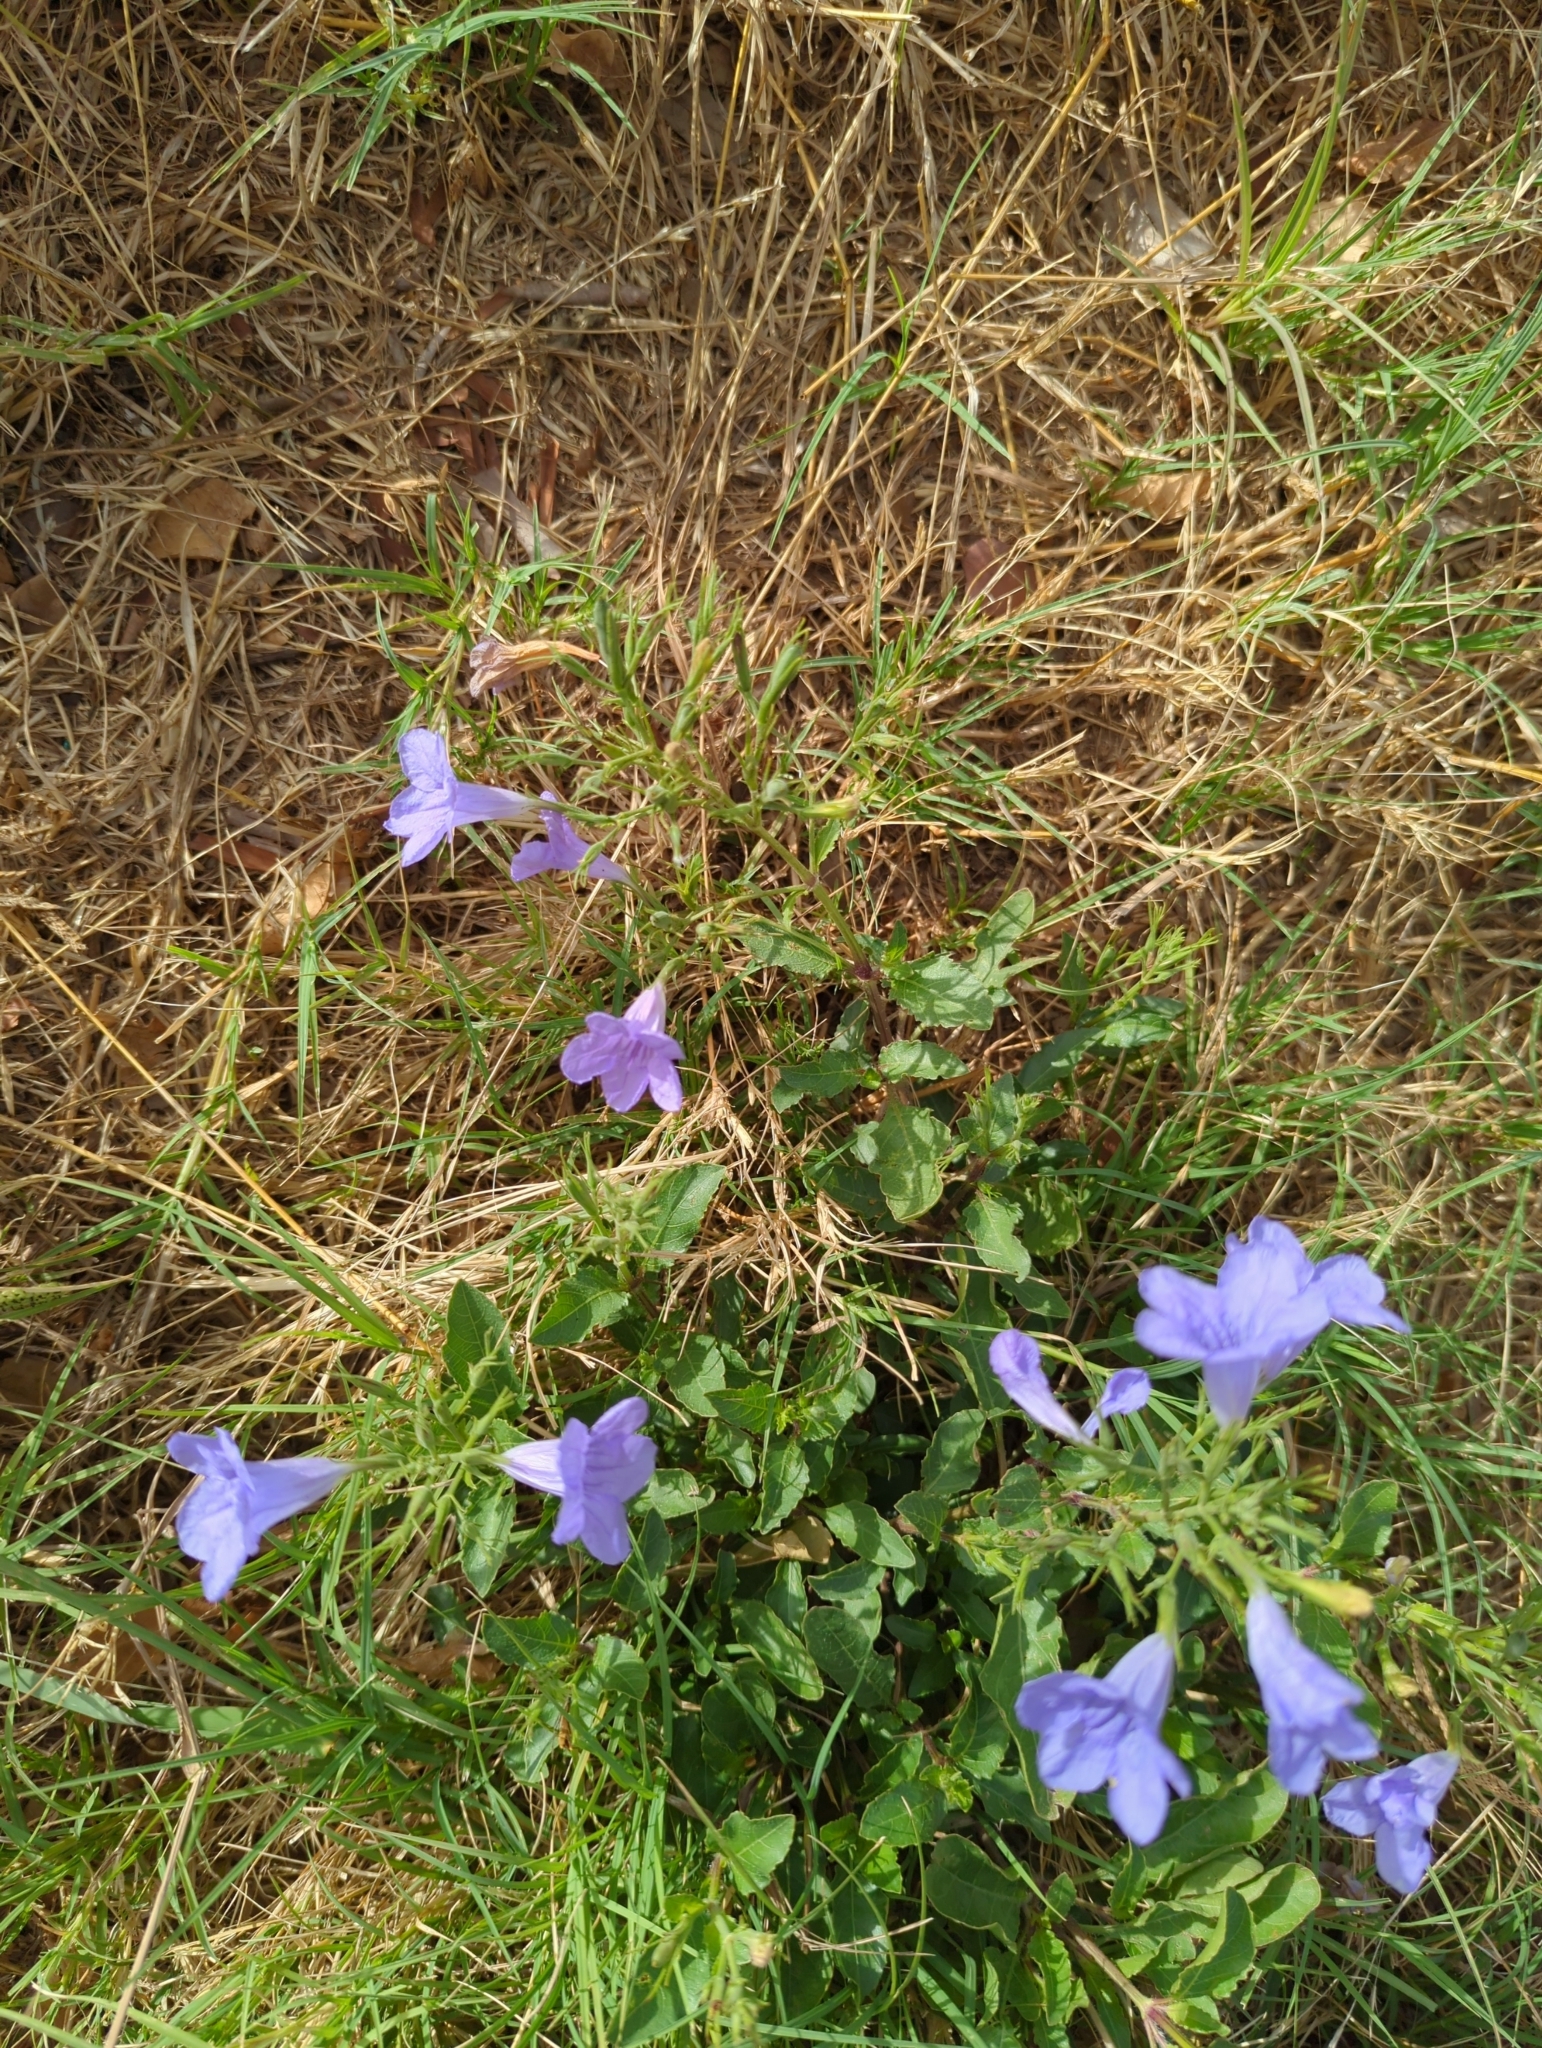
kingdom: Plantae
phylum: Tracheophyta
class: Magnoliopsida
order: Lamiales
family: Acanthaceae
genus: Ruellia
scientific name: Ruellia ciliatiflora
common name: Hairyflower wild petunia
